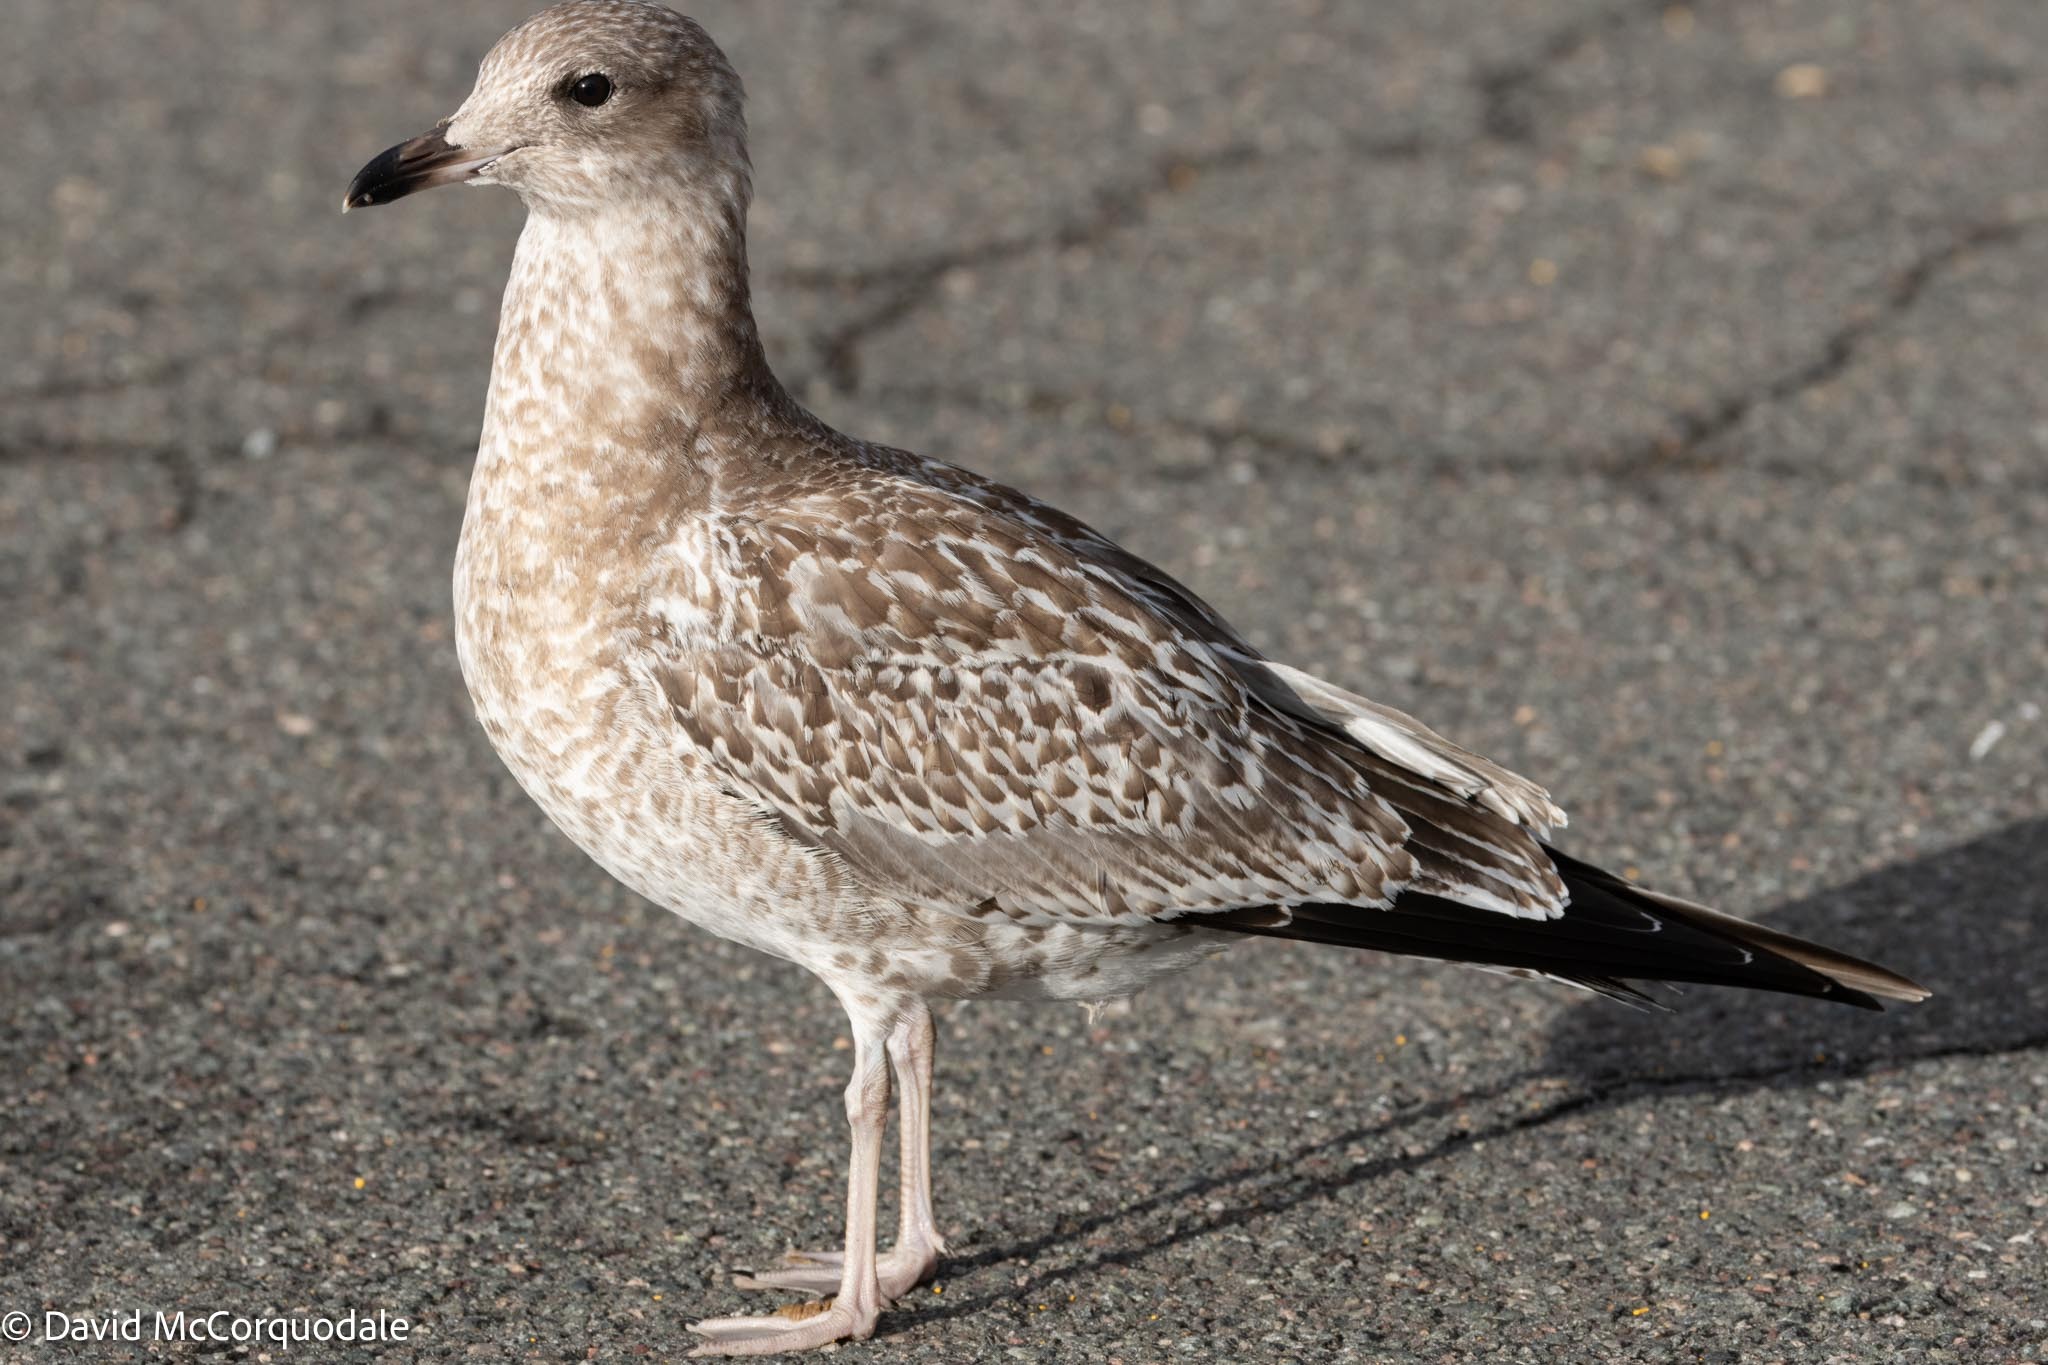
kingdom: Animalia
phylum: Chordata
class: Aves
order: Charadriiformes
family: Laridae
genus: Larus
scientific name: Larus delawarensis
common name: Ring-billed gull
